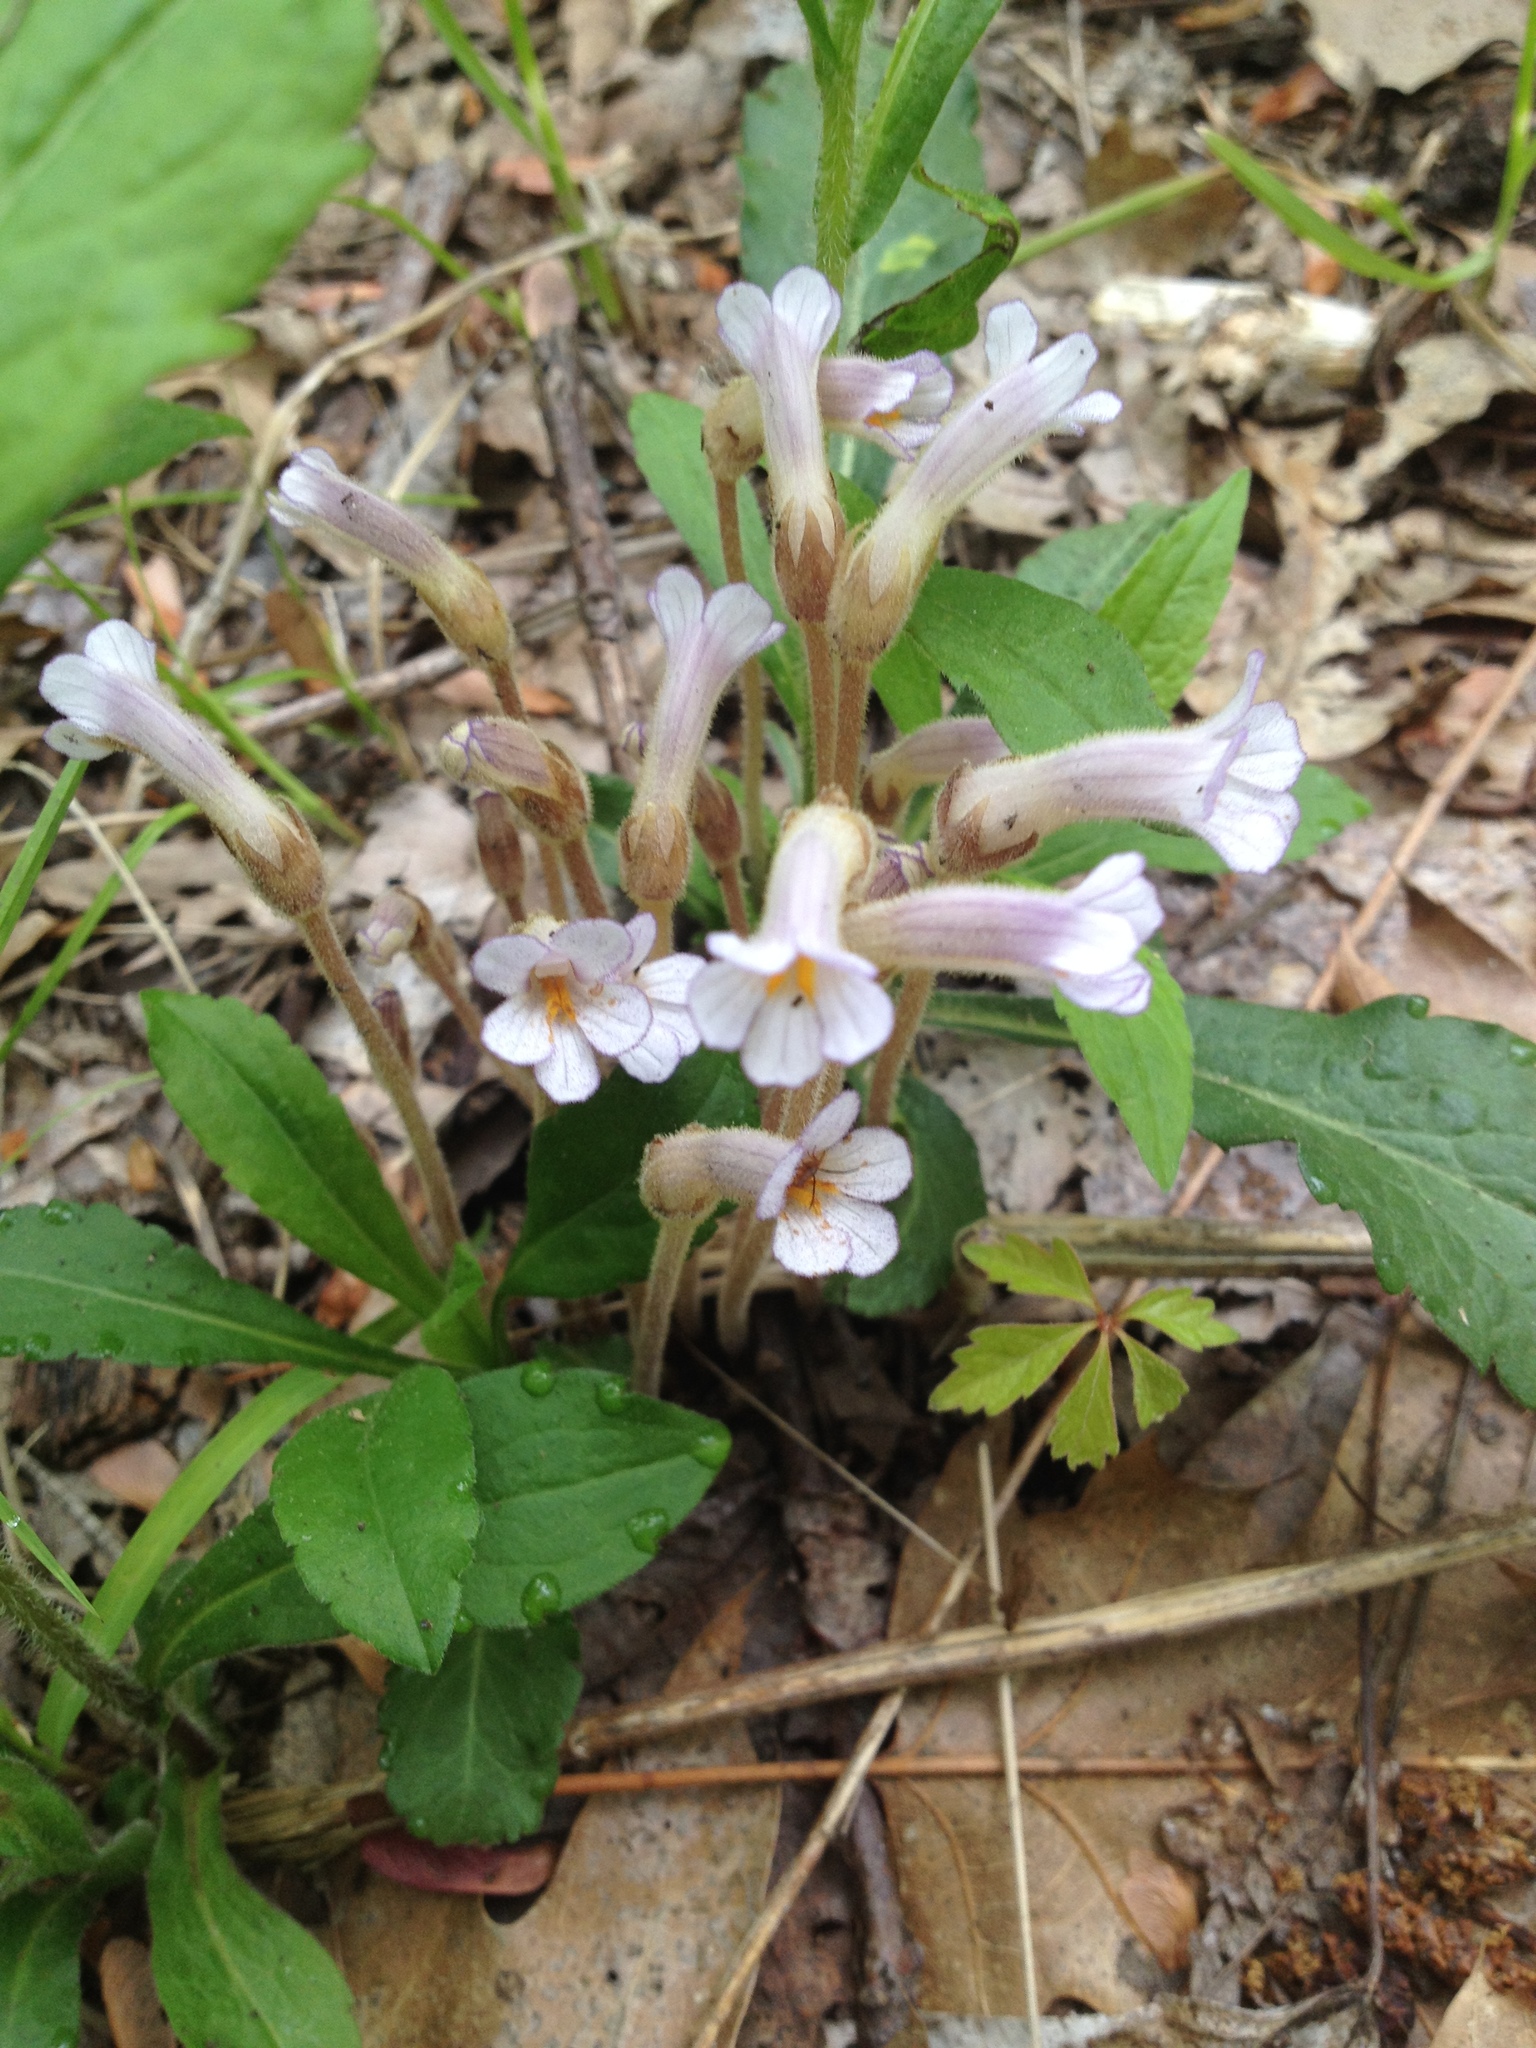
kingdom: Plantae
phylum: Tracheophyta
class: Magnoliopsida
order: Lamiales
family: Orobanchaceae
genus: Aphyllon
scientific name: Aphyllon uniflorum
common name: One-flowered broomrape
